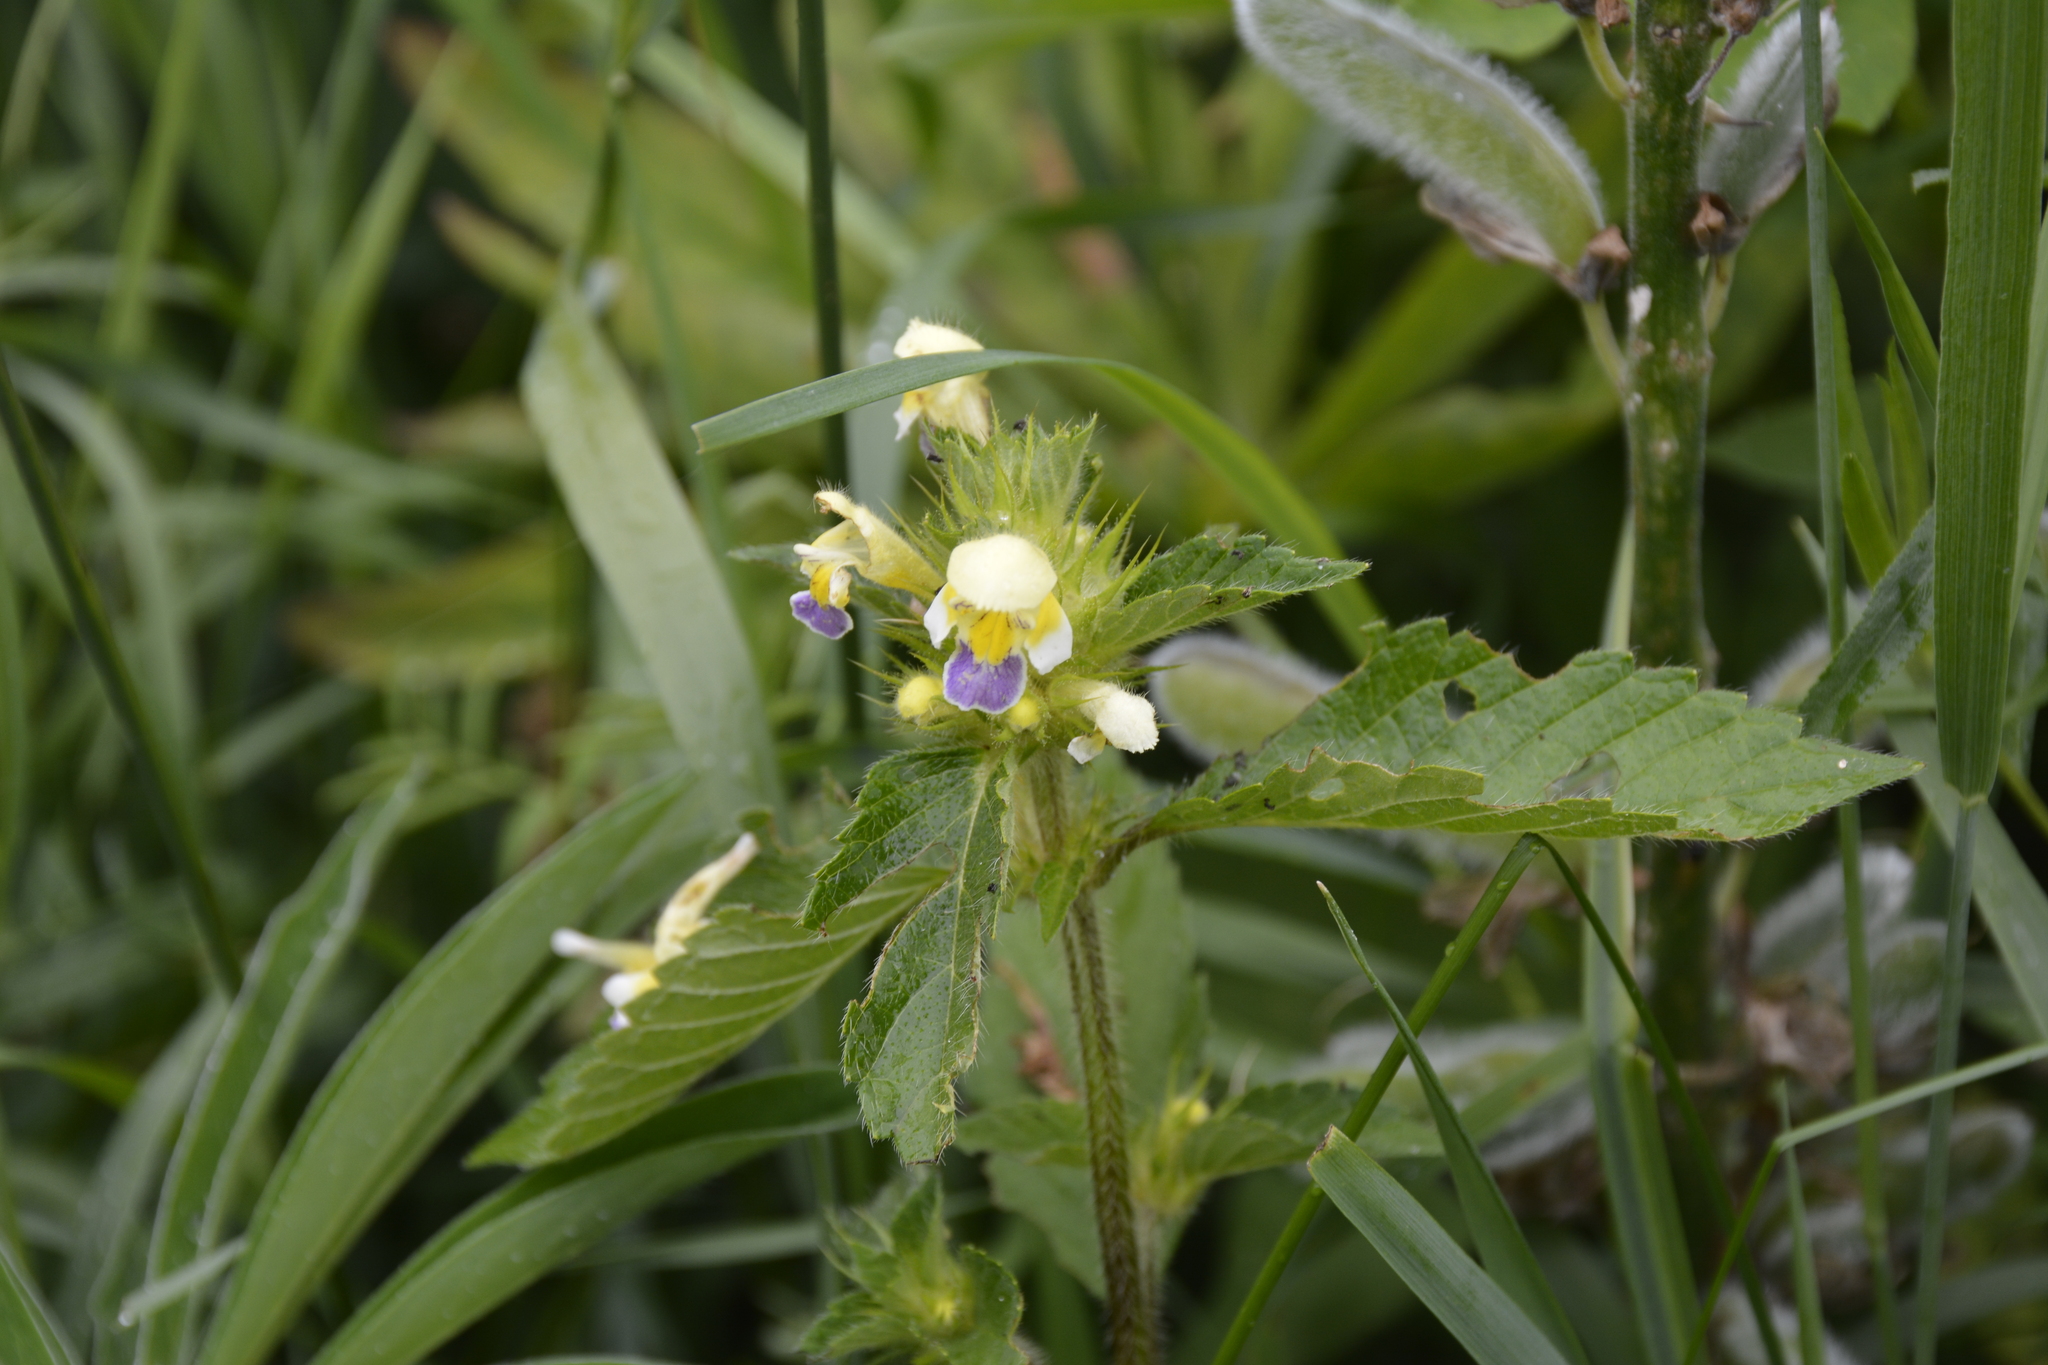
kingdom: Plantae
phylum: Tracheophyta
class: Magnoliopsida
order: Lamiales
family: Lamiaceae
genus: Galeopsis
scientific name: Galeopsis speciosa
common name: Large-flowered hemp-nettle
